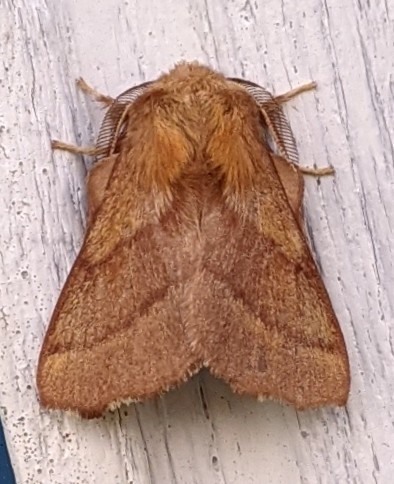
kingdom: Animalia
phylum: Arthropoda
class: Insecta
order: Lepidoptera
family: Lasiocampidae
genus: Malacosoma
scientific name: Malacosoma disstria
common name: Forest tent caterpillar
